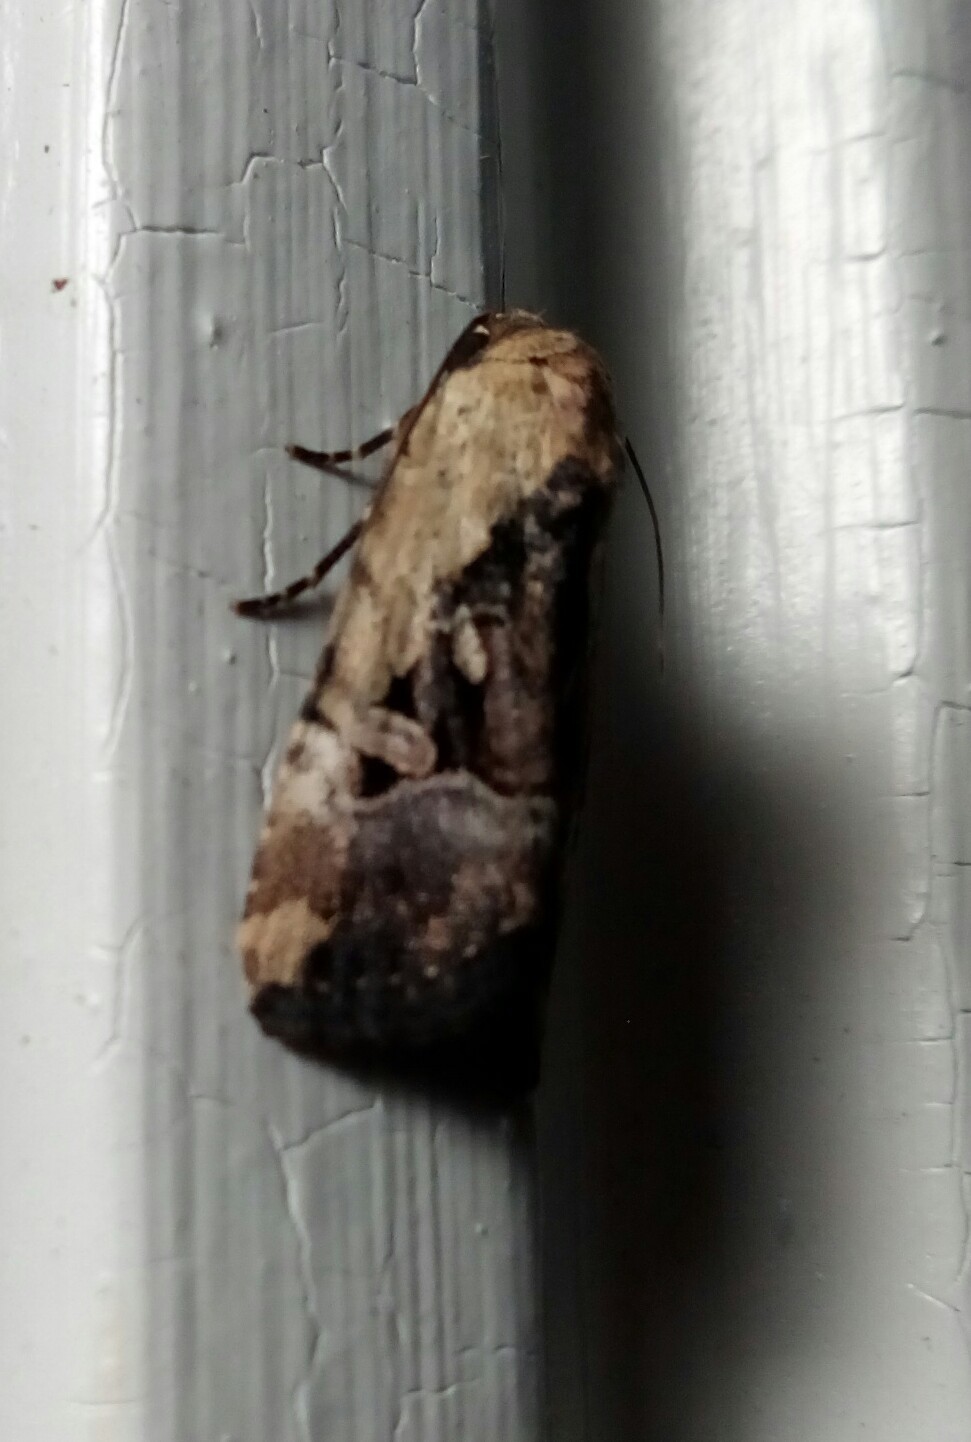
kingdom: Animalia
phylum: Arthropoda
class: Insecta
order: Lepidoptera
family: Noctuidae
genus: Elaphria
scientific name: Elaphria chalcedonia
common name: Chalcedony midget
